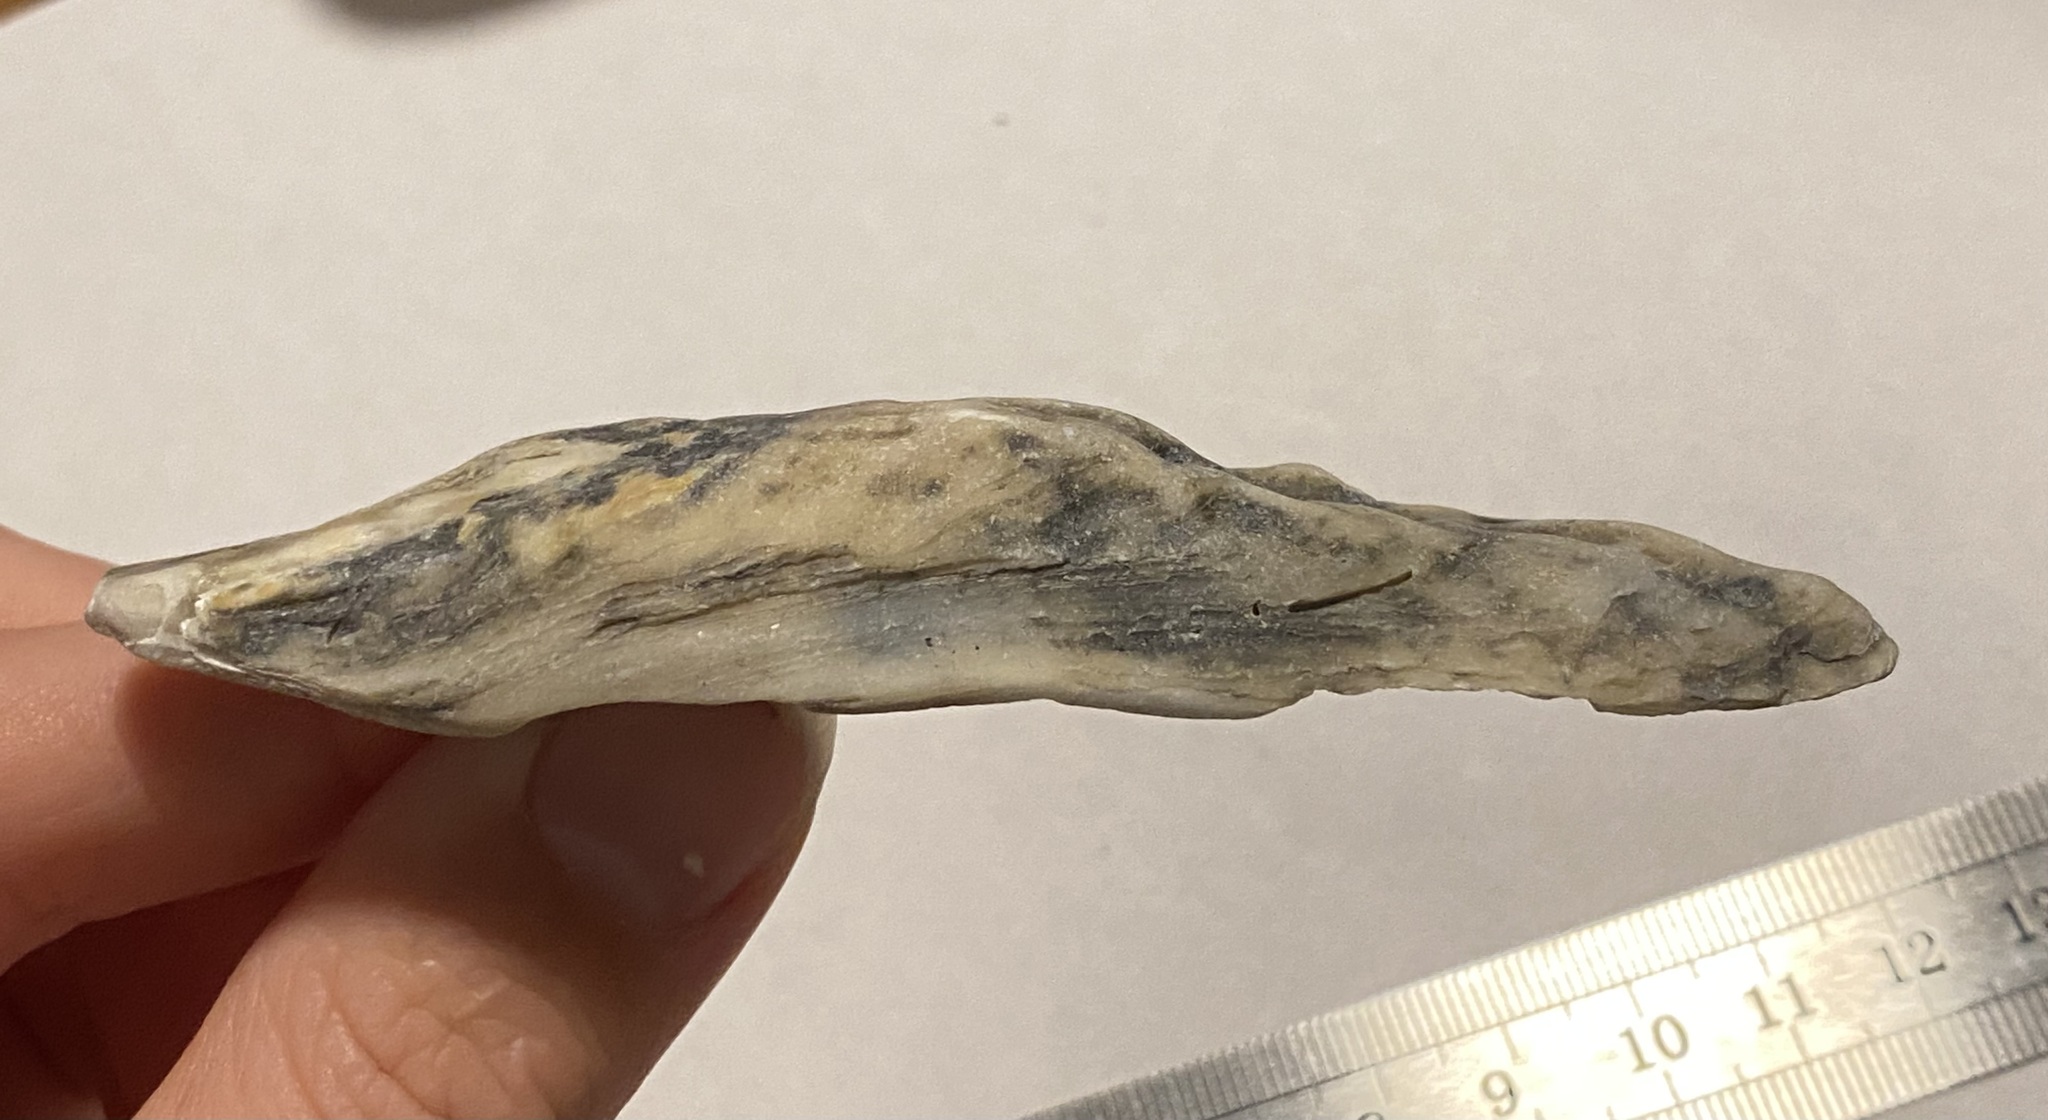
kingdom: Animalia
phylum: Mollusca
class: Bivalvia
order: Ostreida
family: Ostreidae
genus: Crassostrea
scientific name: Crassostrea virginica
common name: American oyster
